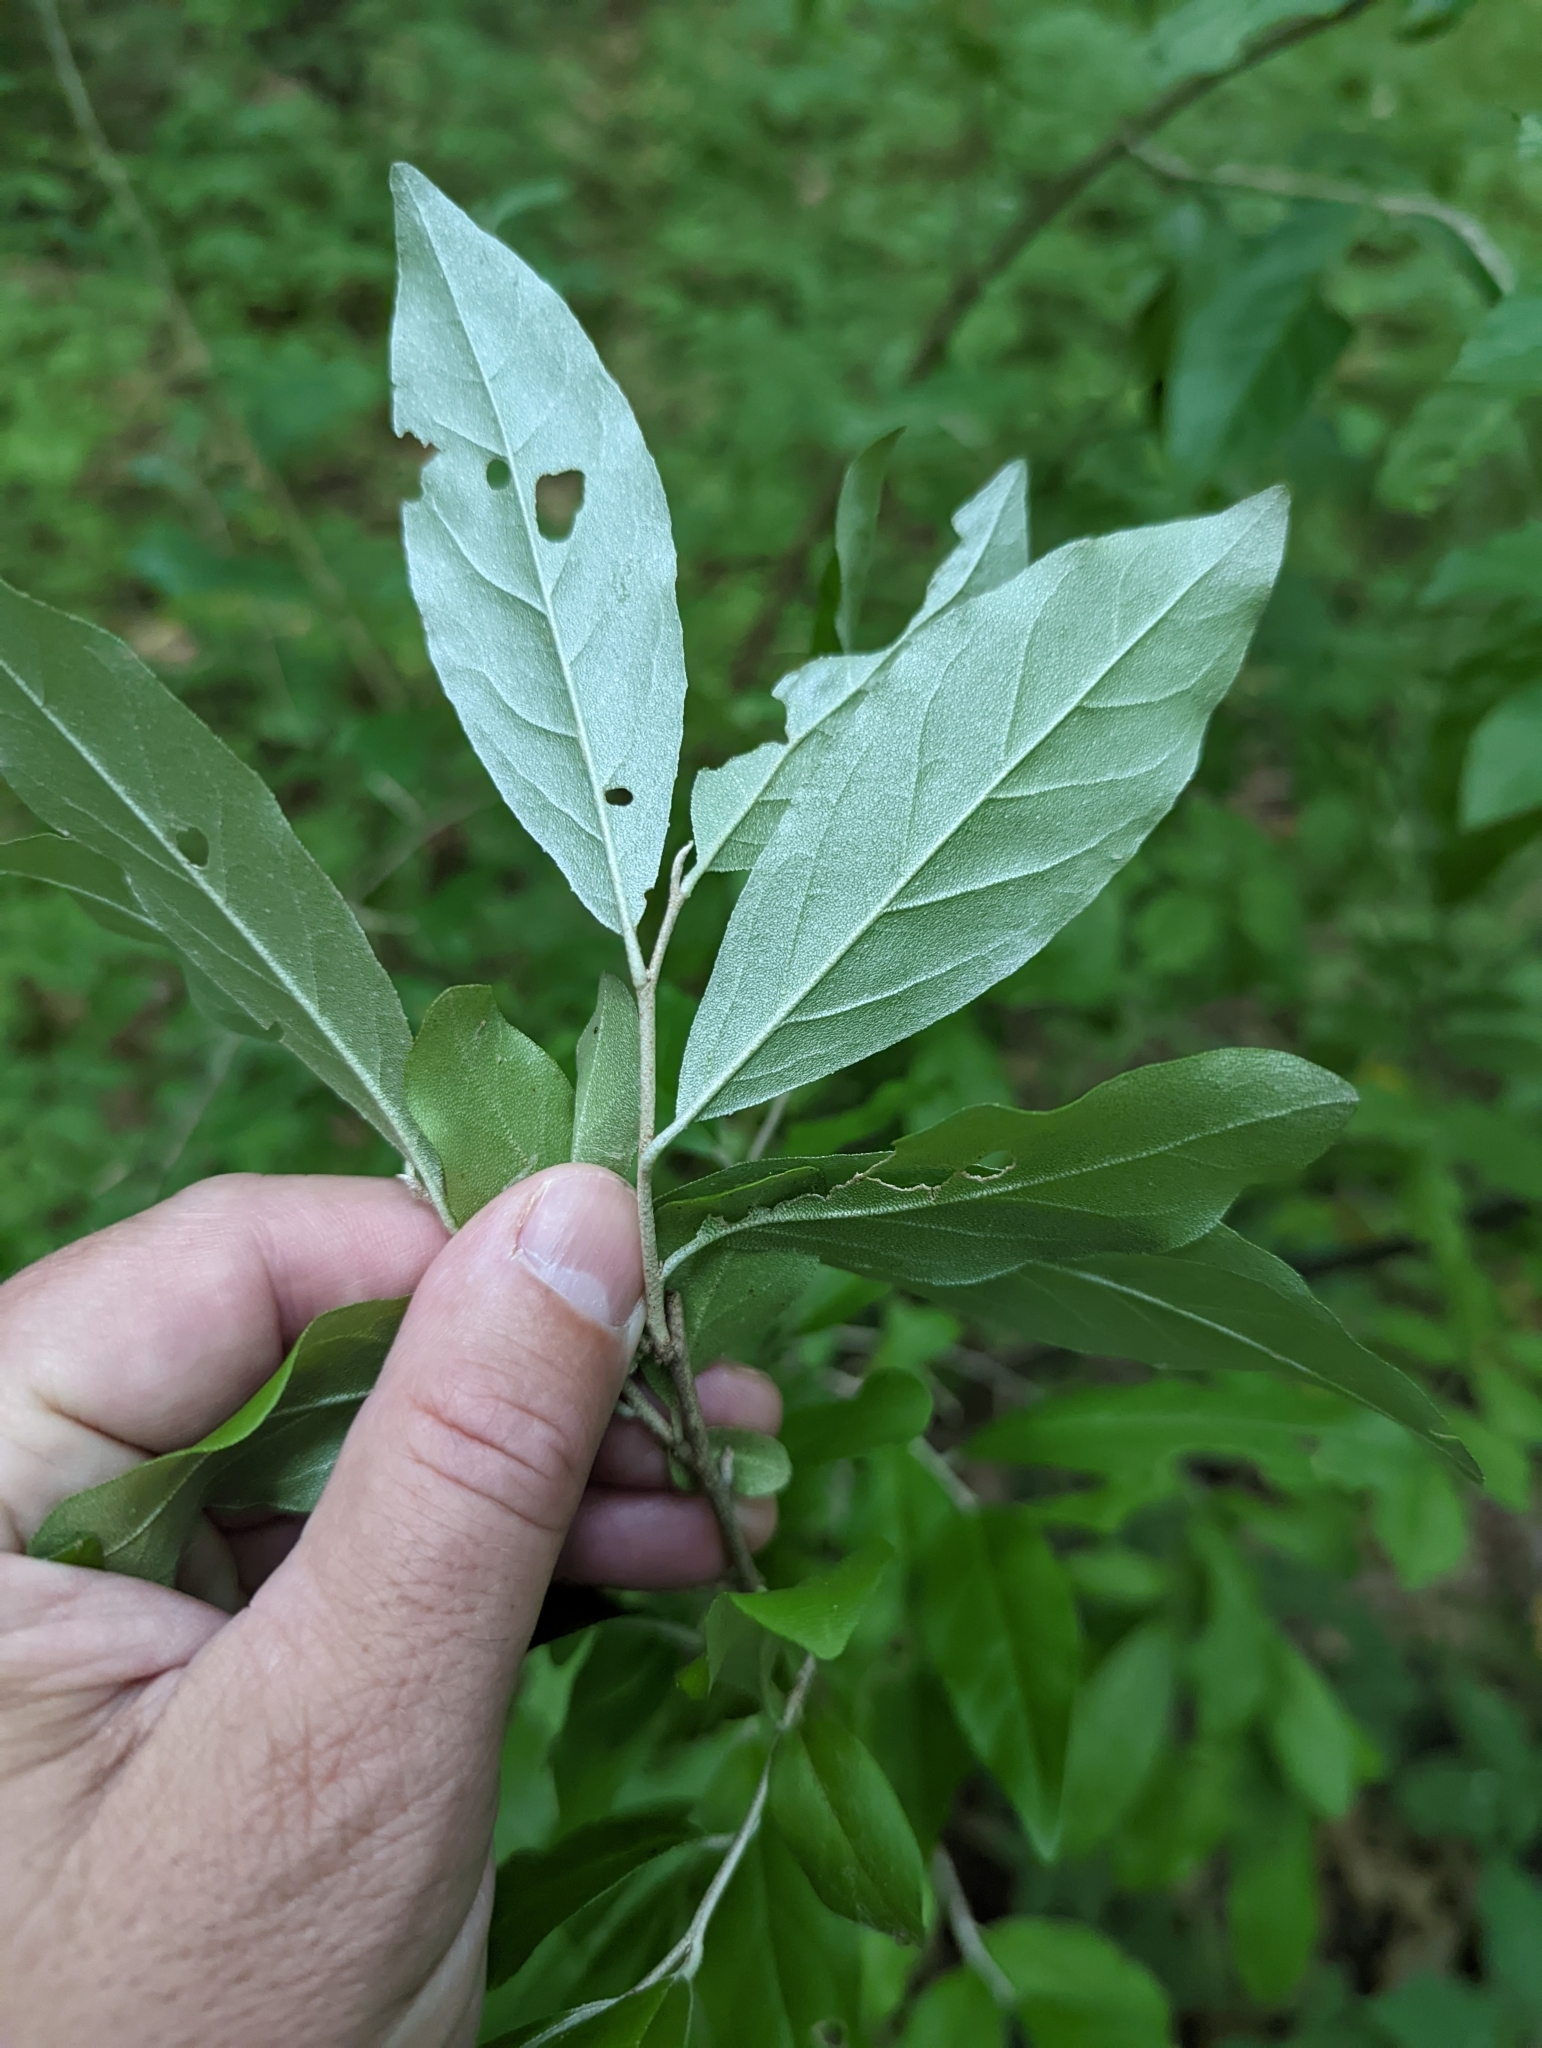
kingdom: Plantae
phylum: Tracheophyta
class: Magnoliopsida
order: Rosales
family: Elaeagnaceae
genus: Elaeagnus
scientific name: Elaeagnus umbellata
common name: Autumn olive
